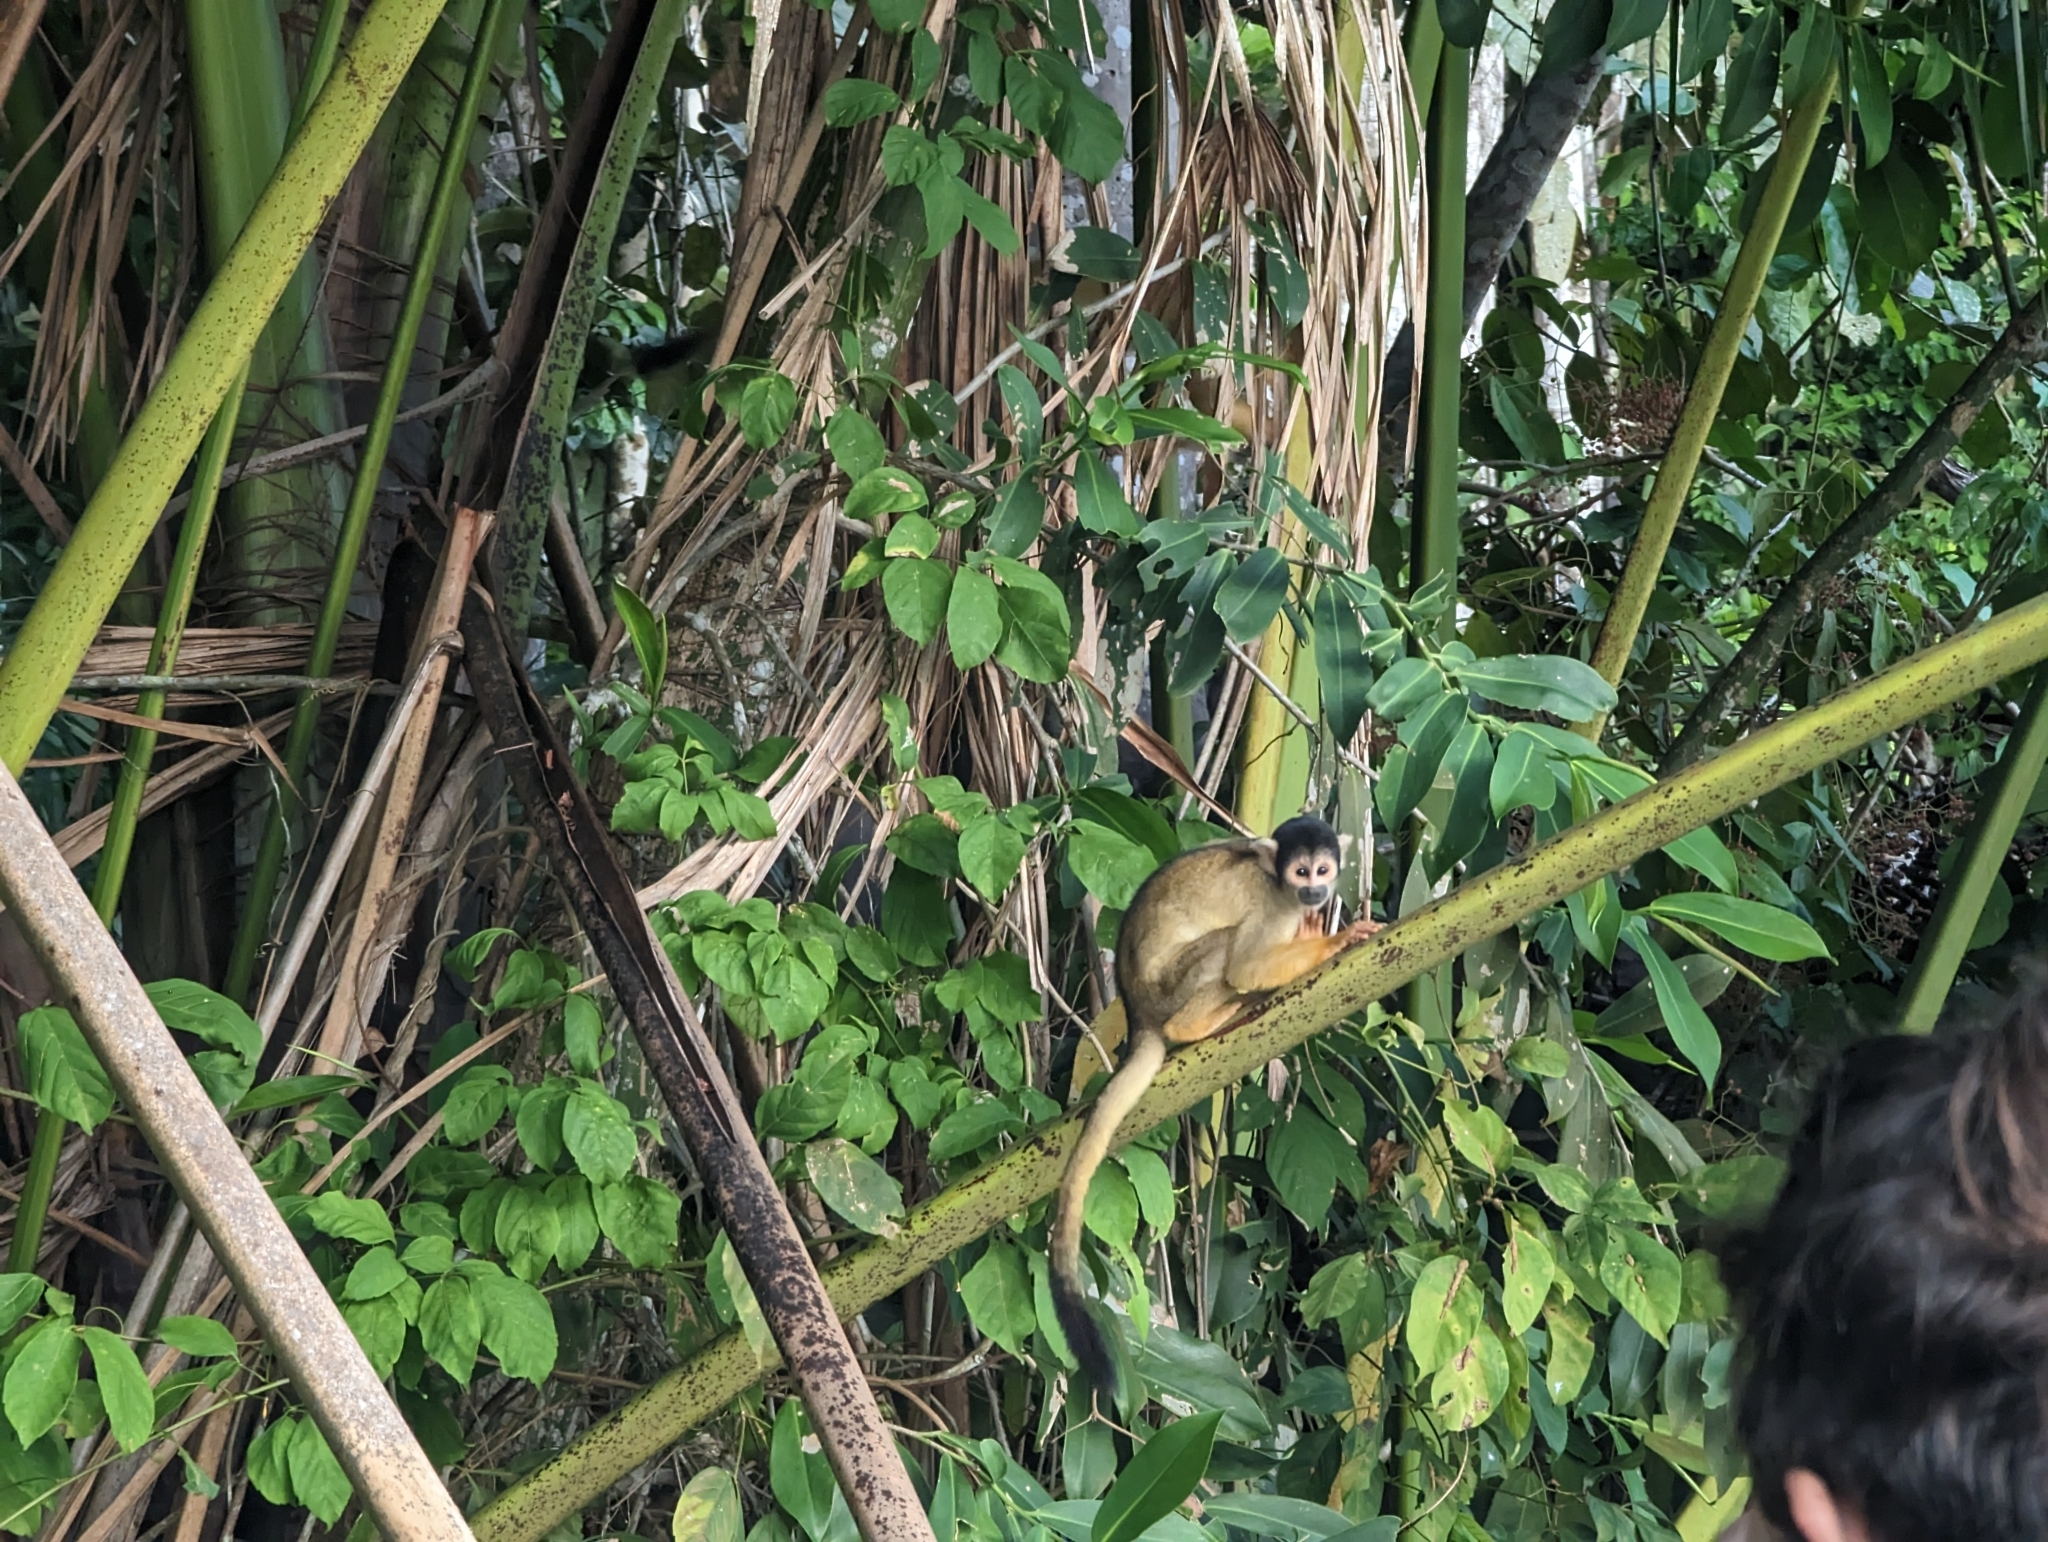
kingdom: Animalia
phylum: Chordata
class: Mammalia
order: Primates
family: Cebidae
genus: Saimiri
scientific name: Saimiri boliviensis
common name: Black-capped squirrel monkey
